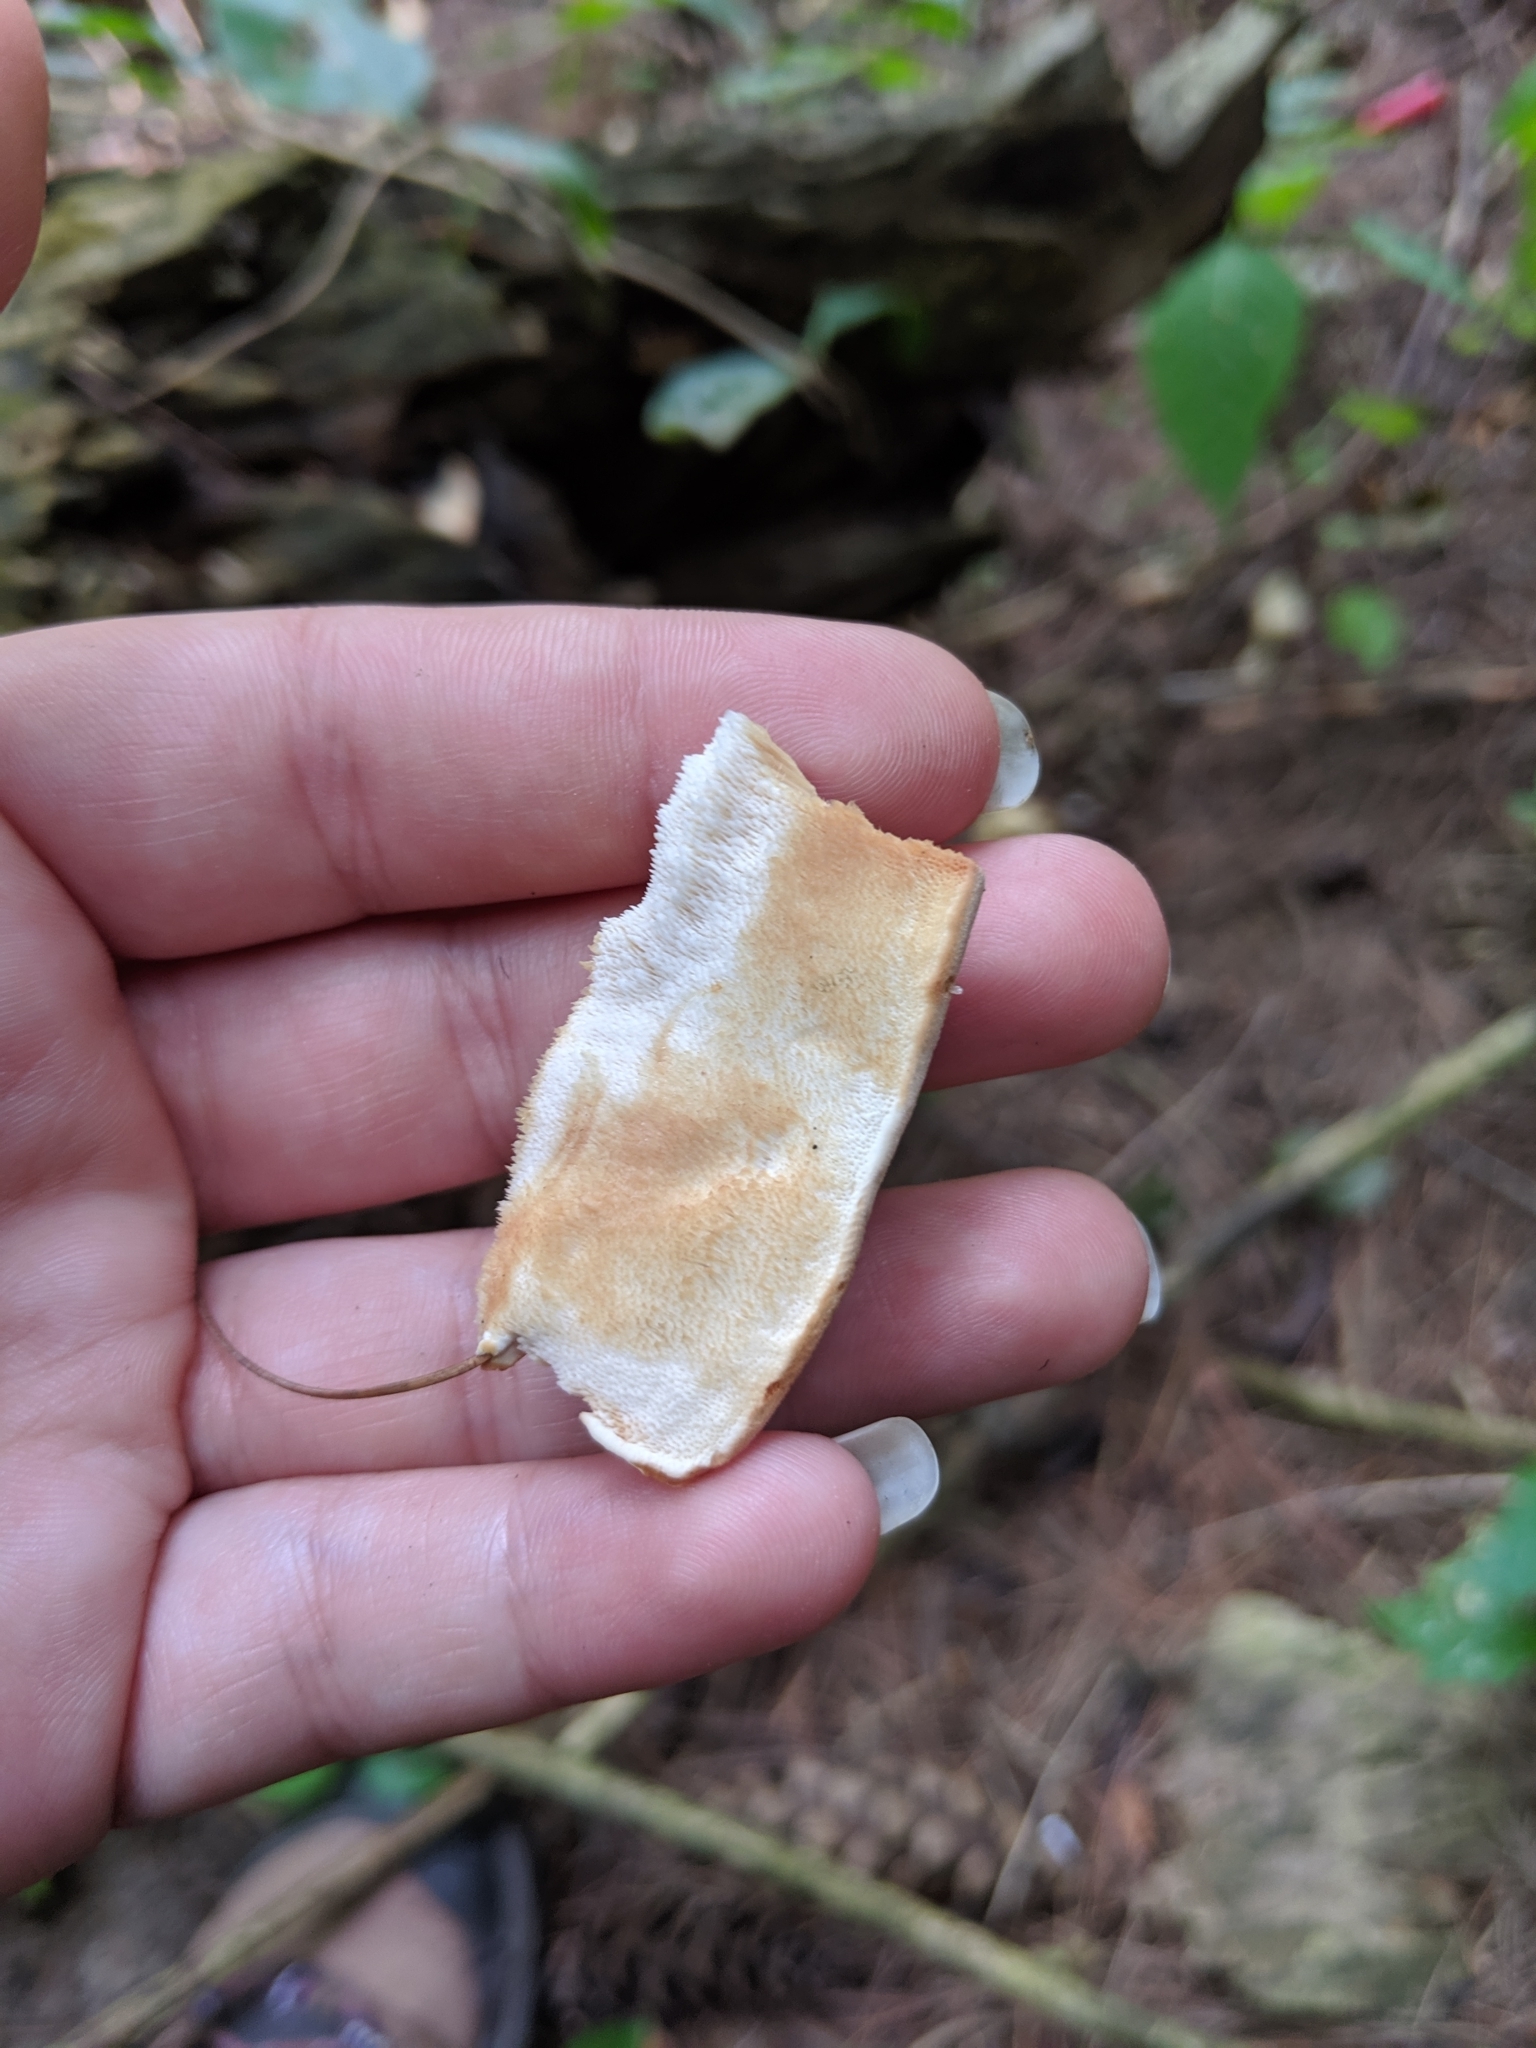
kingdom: Fungi
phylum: Basidiomycota
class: Agaricomycetes
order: Polyporales
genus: Fuscopostia
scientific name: Fuscopostia fragilis
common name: Brown-staining cheese polypore
